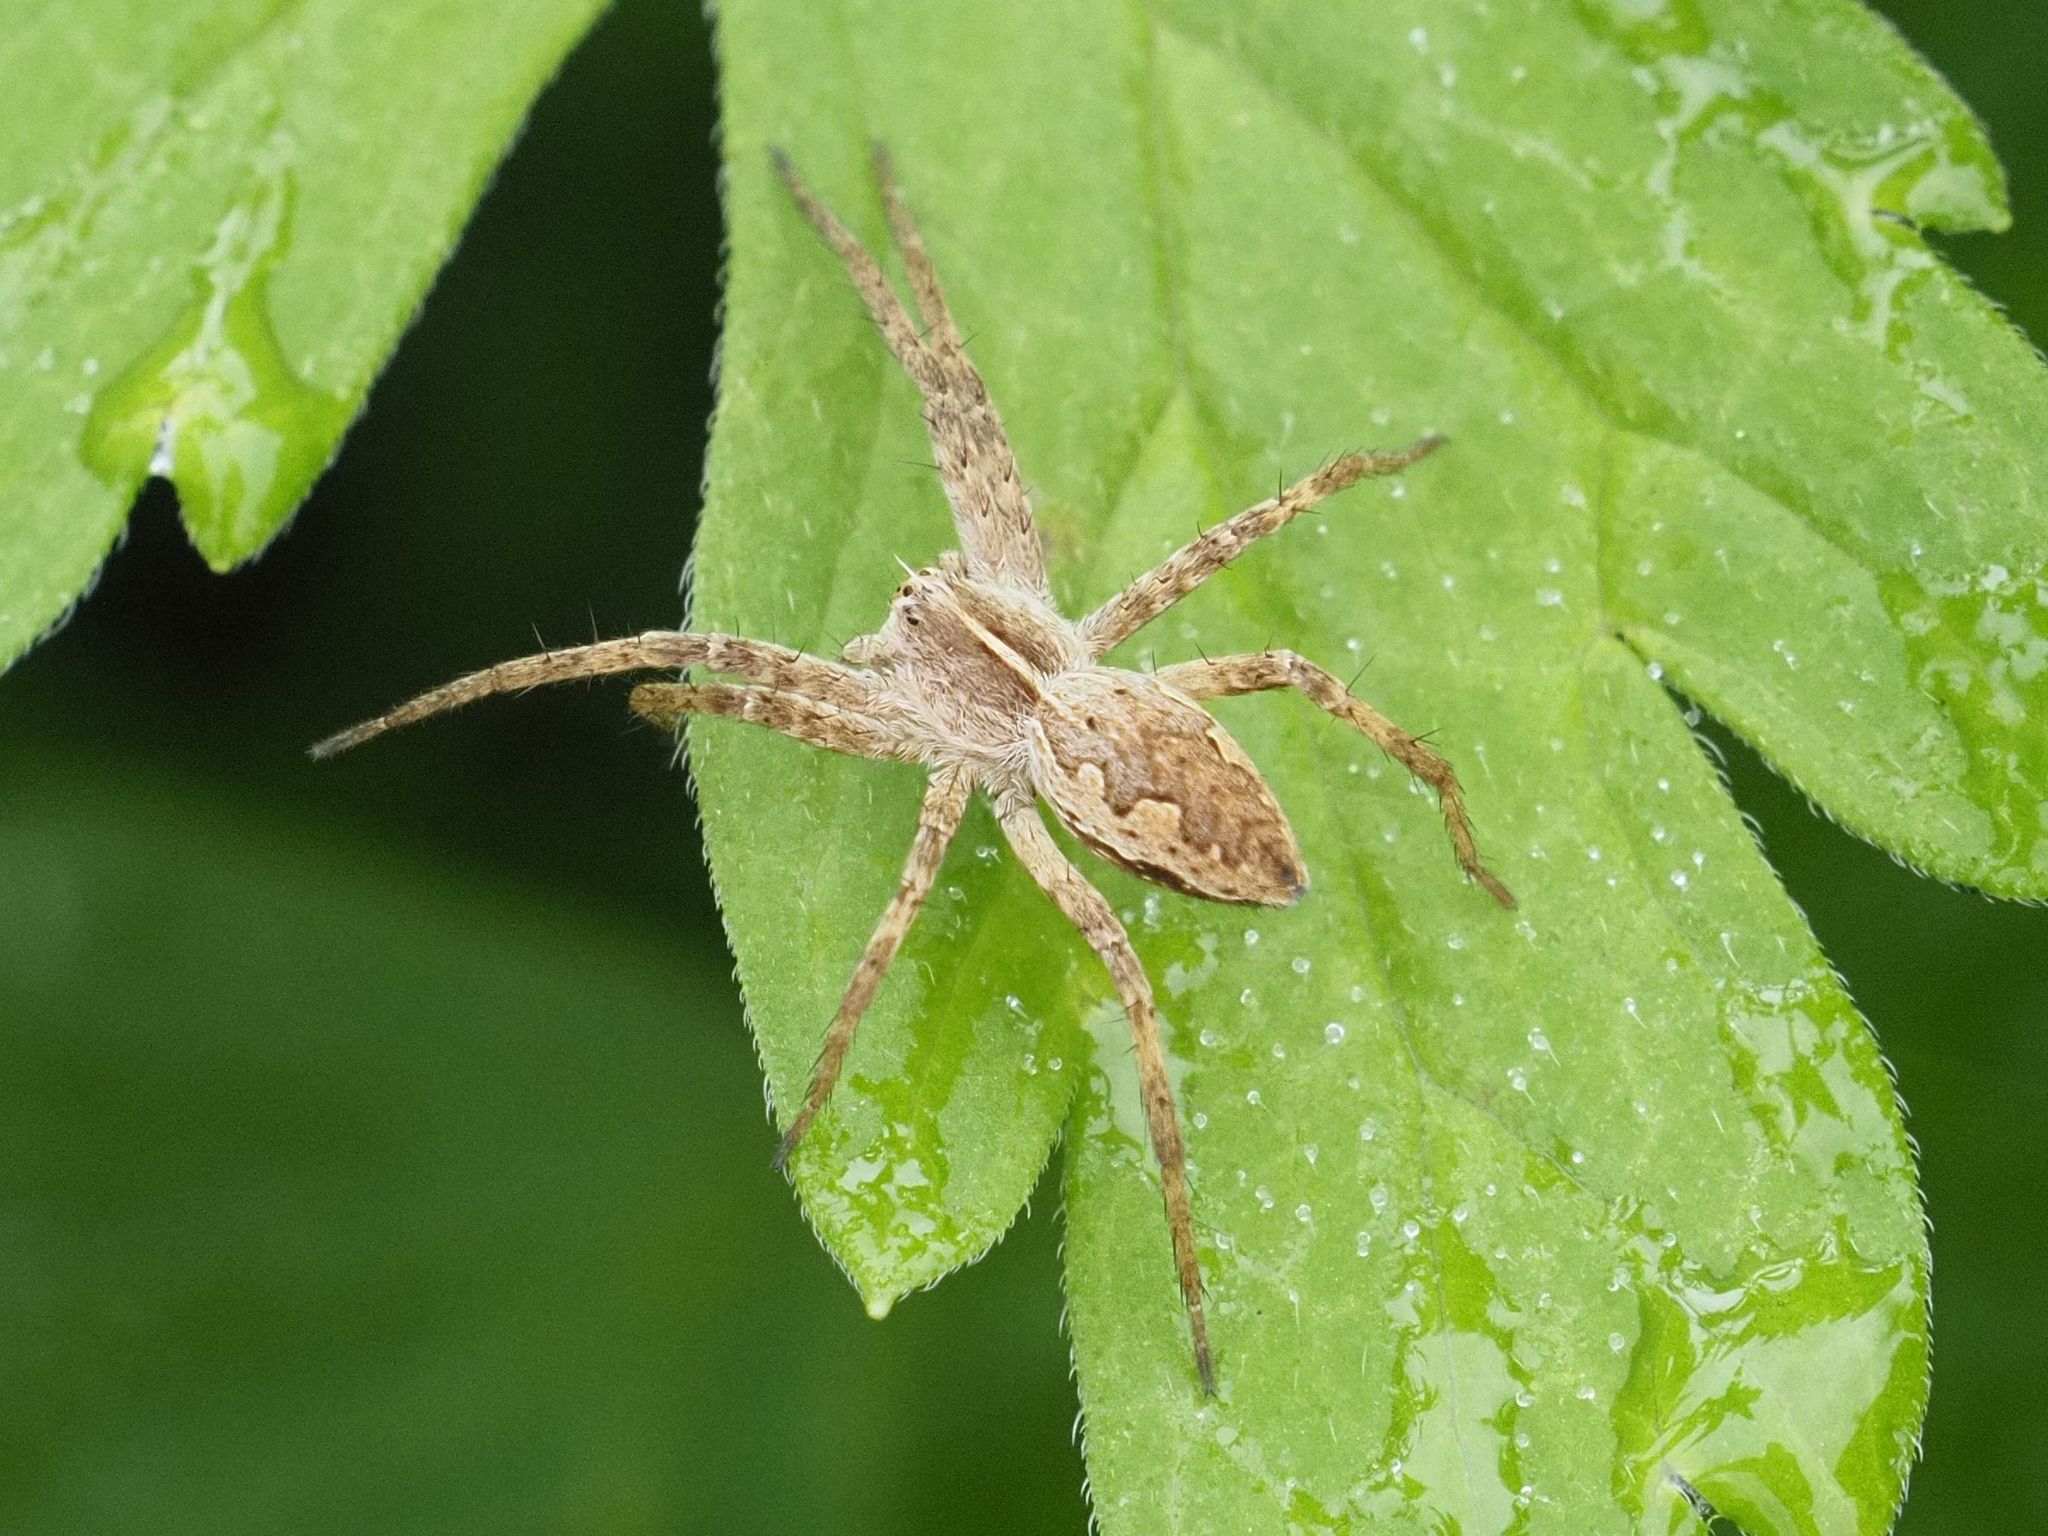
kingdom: Animalia
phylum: Arthropoda
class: Arachnida
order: Araneae
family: Pisauridae
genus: Pisaura
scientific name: Pisaura mirabilis
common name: Tent spider
